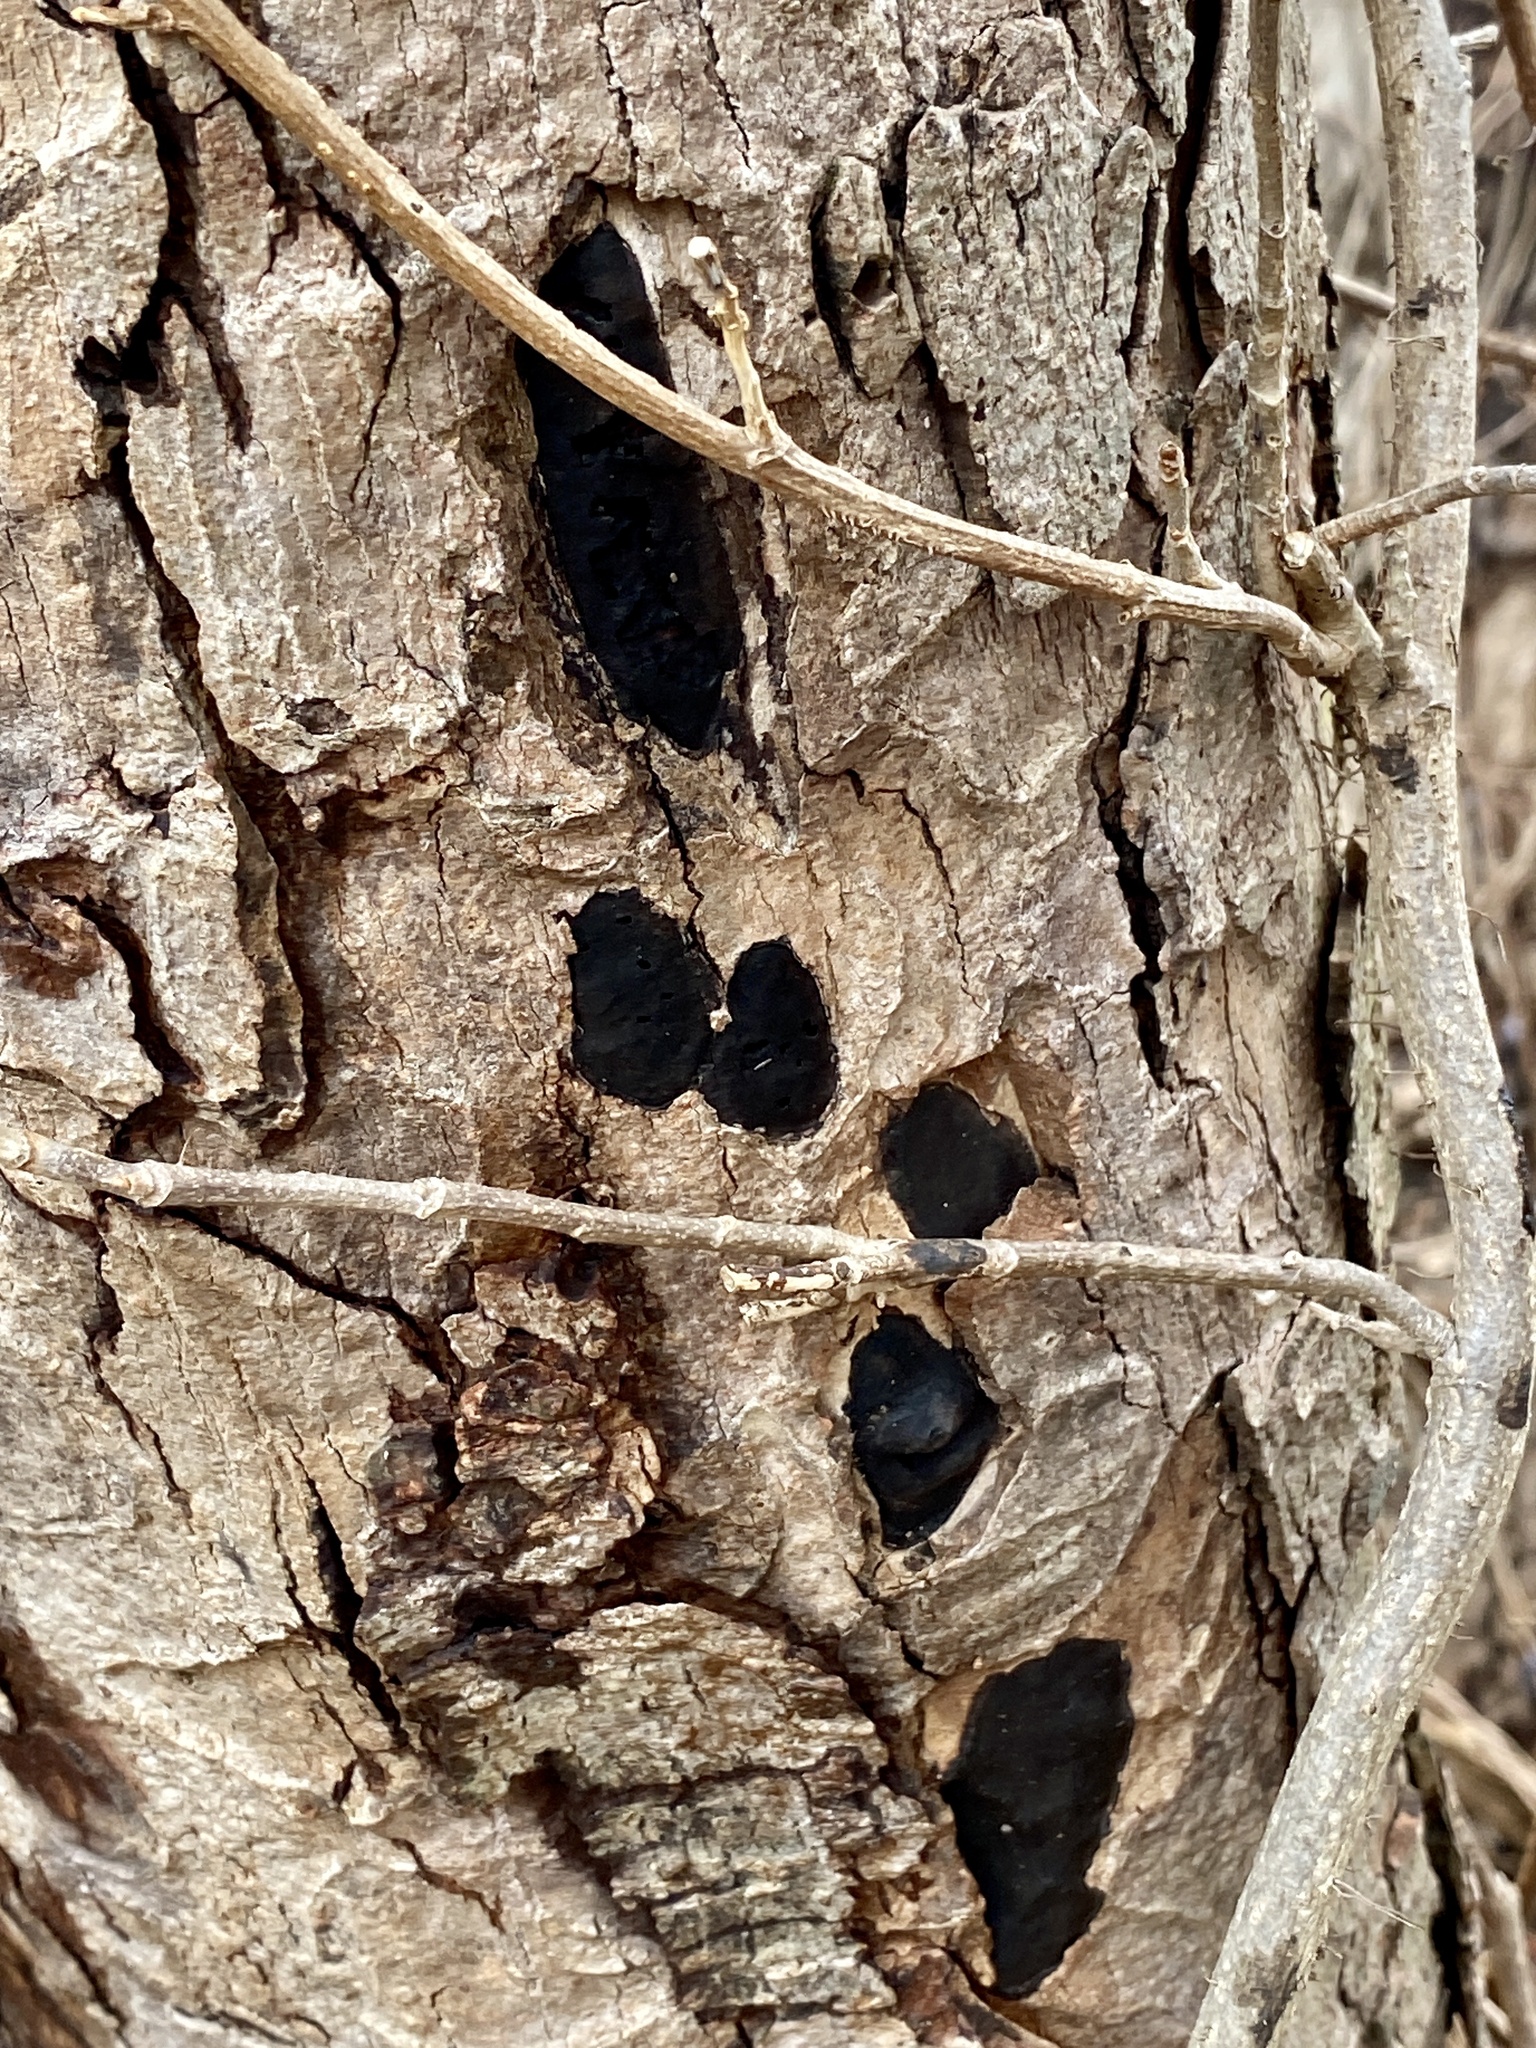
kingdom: Fungi
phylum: Ascomycota
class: Sordariomycetes
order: Xylariales
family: Graphostromataceae
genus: Camillea
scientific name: Camillea tinctor
